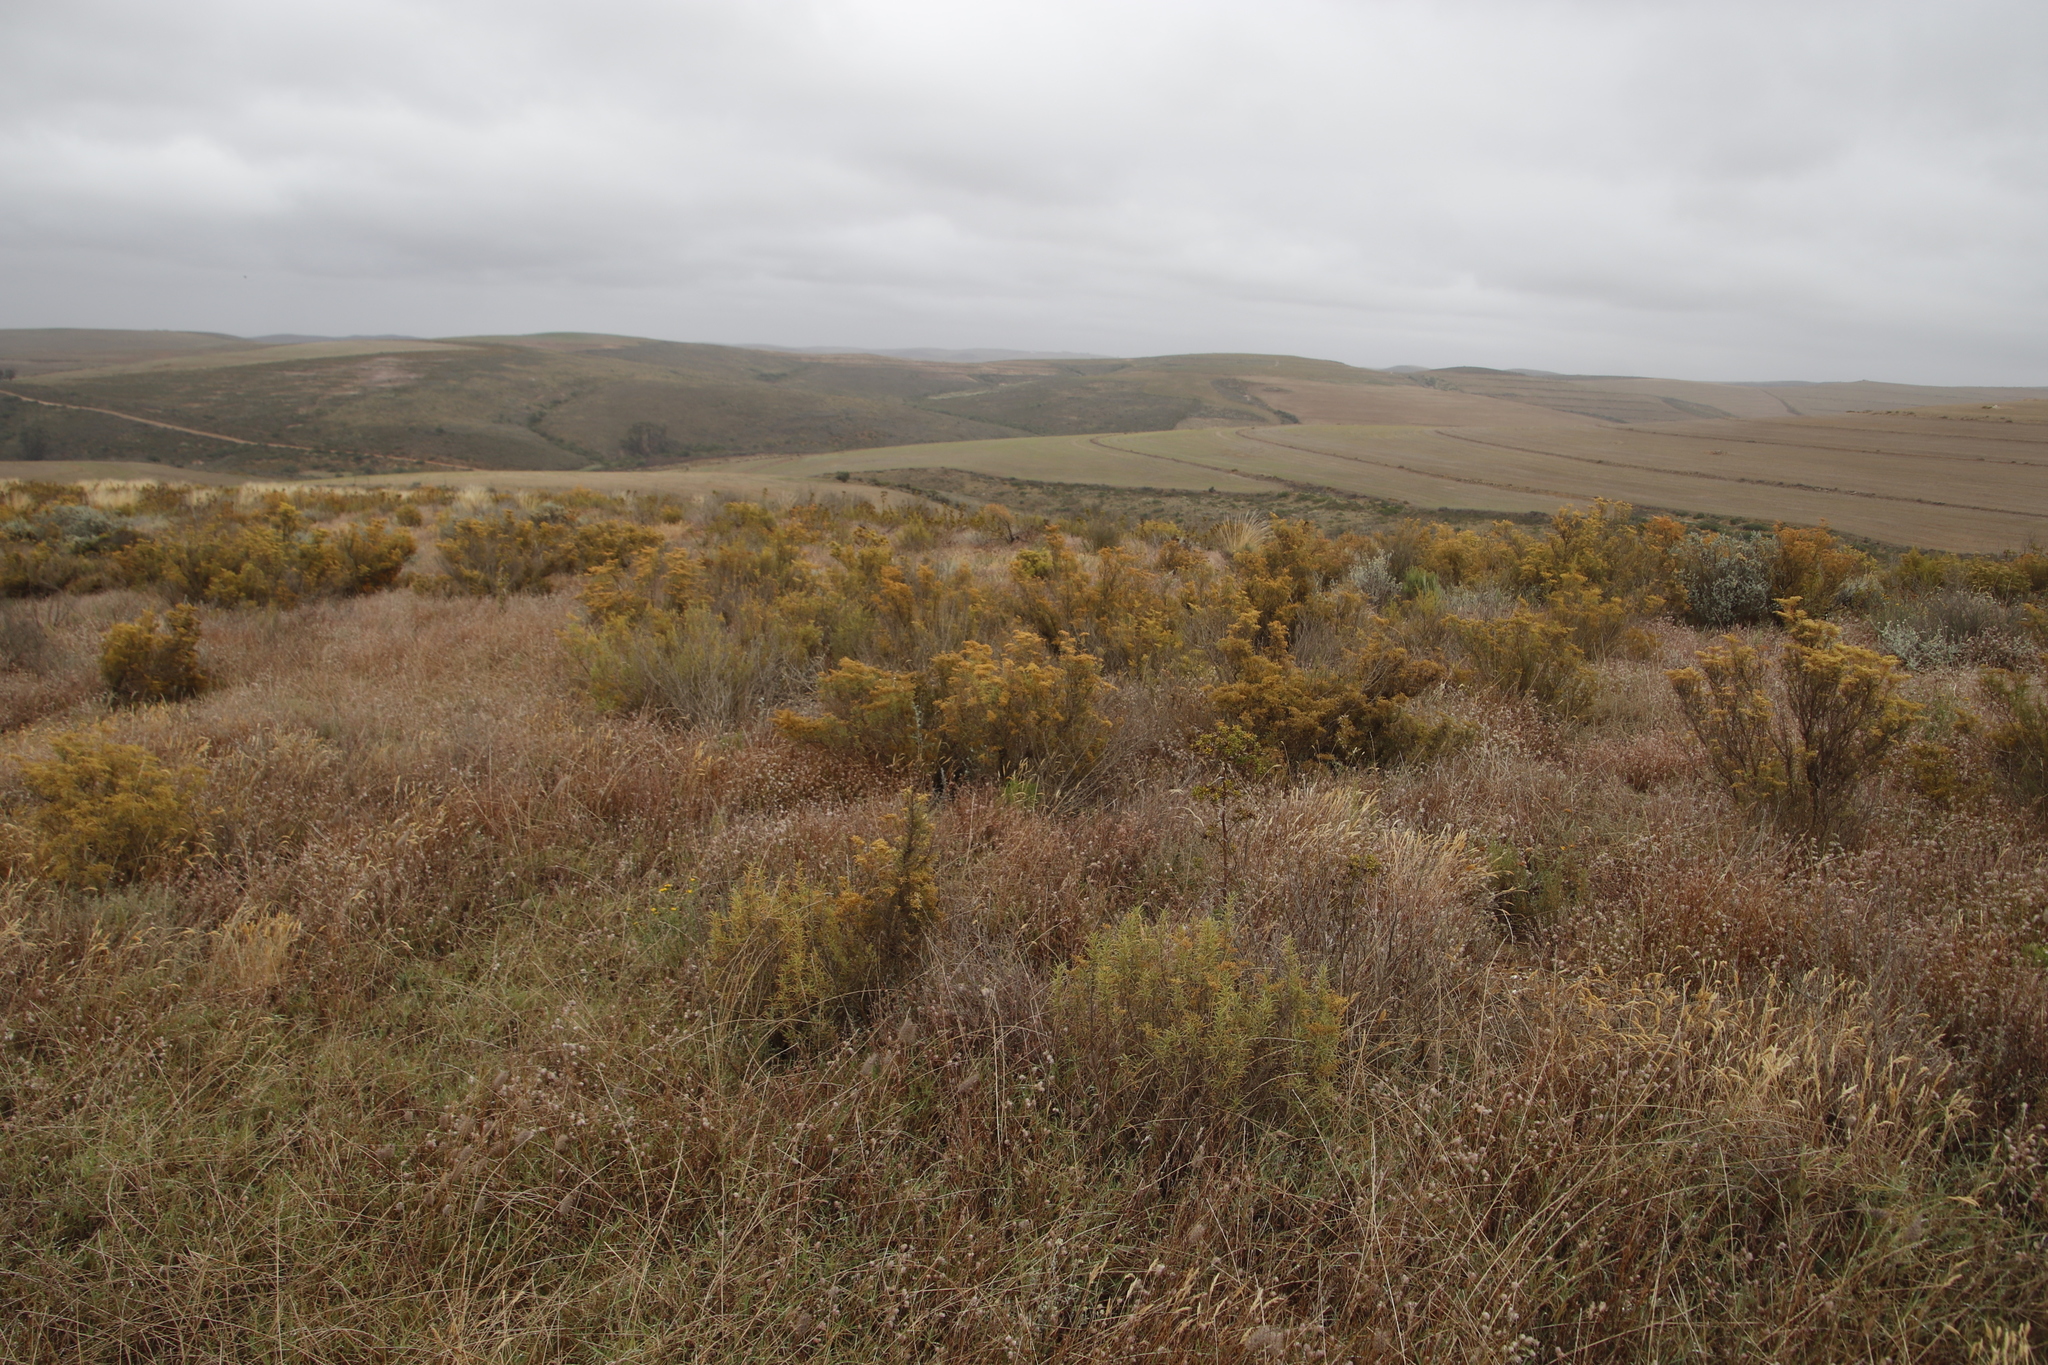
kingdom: Plantae
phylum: Tracheophyta
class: Magnoliopsida
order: Caryophyllales
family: Aizoaceae
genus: Aizoon
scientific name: Aizoon africanum
